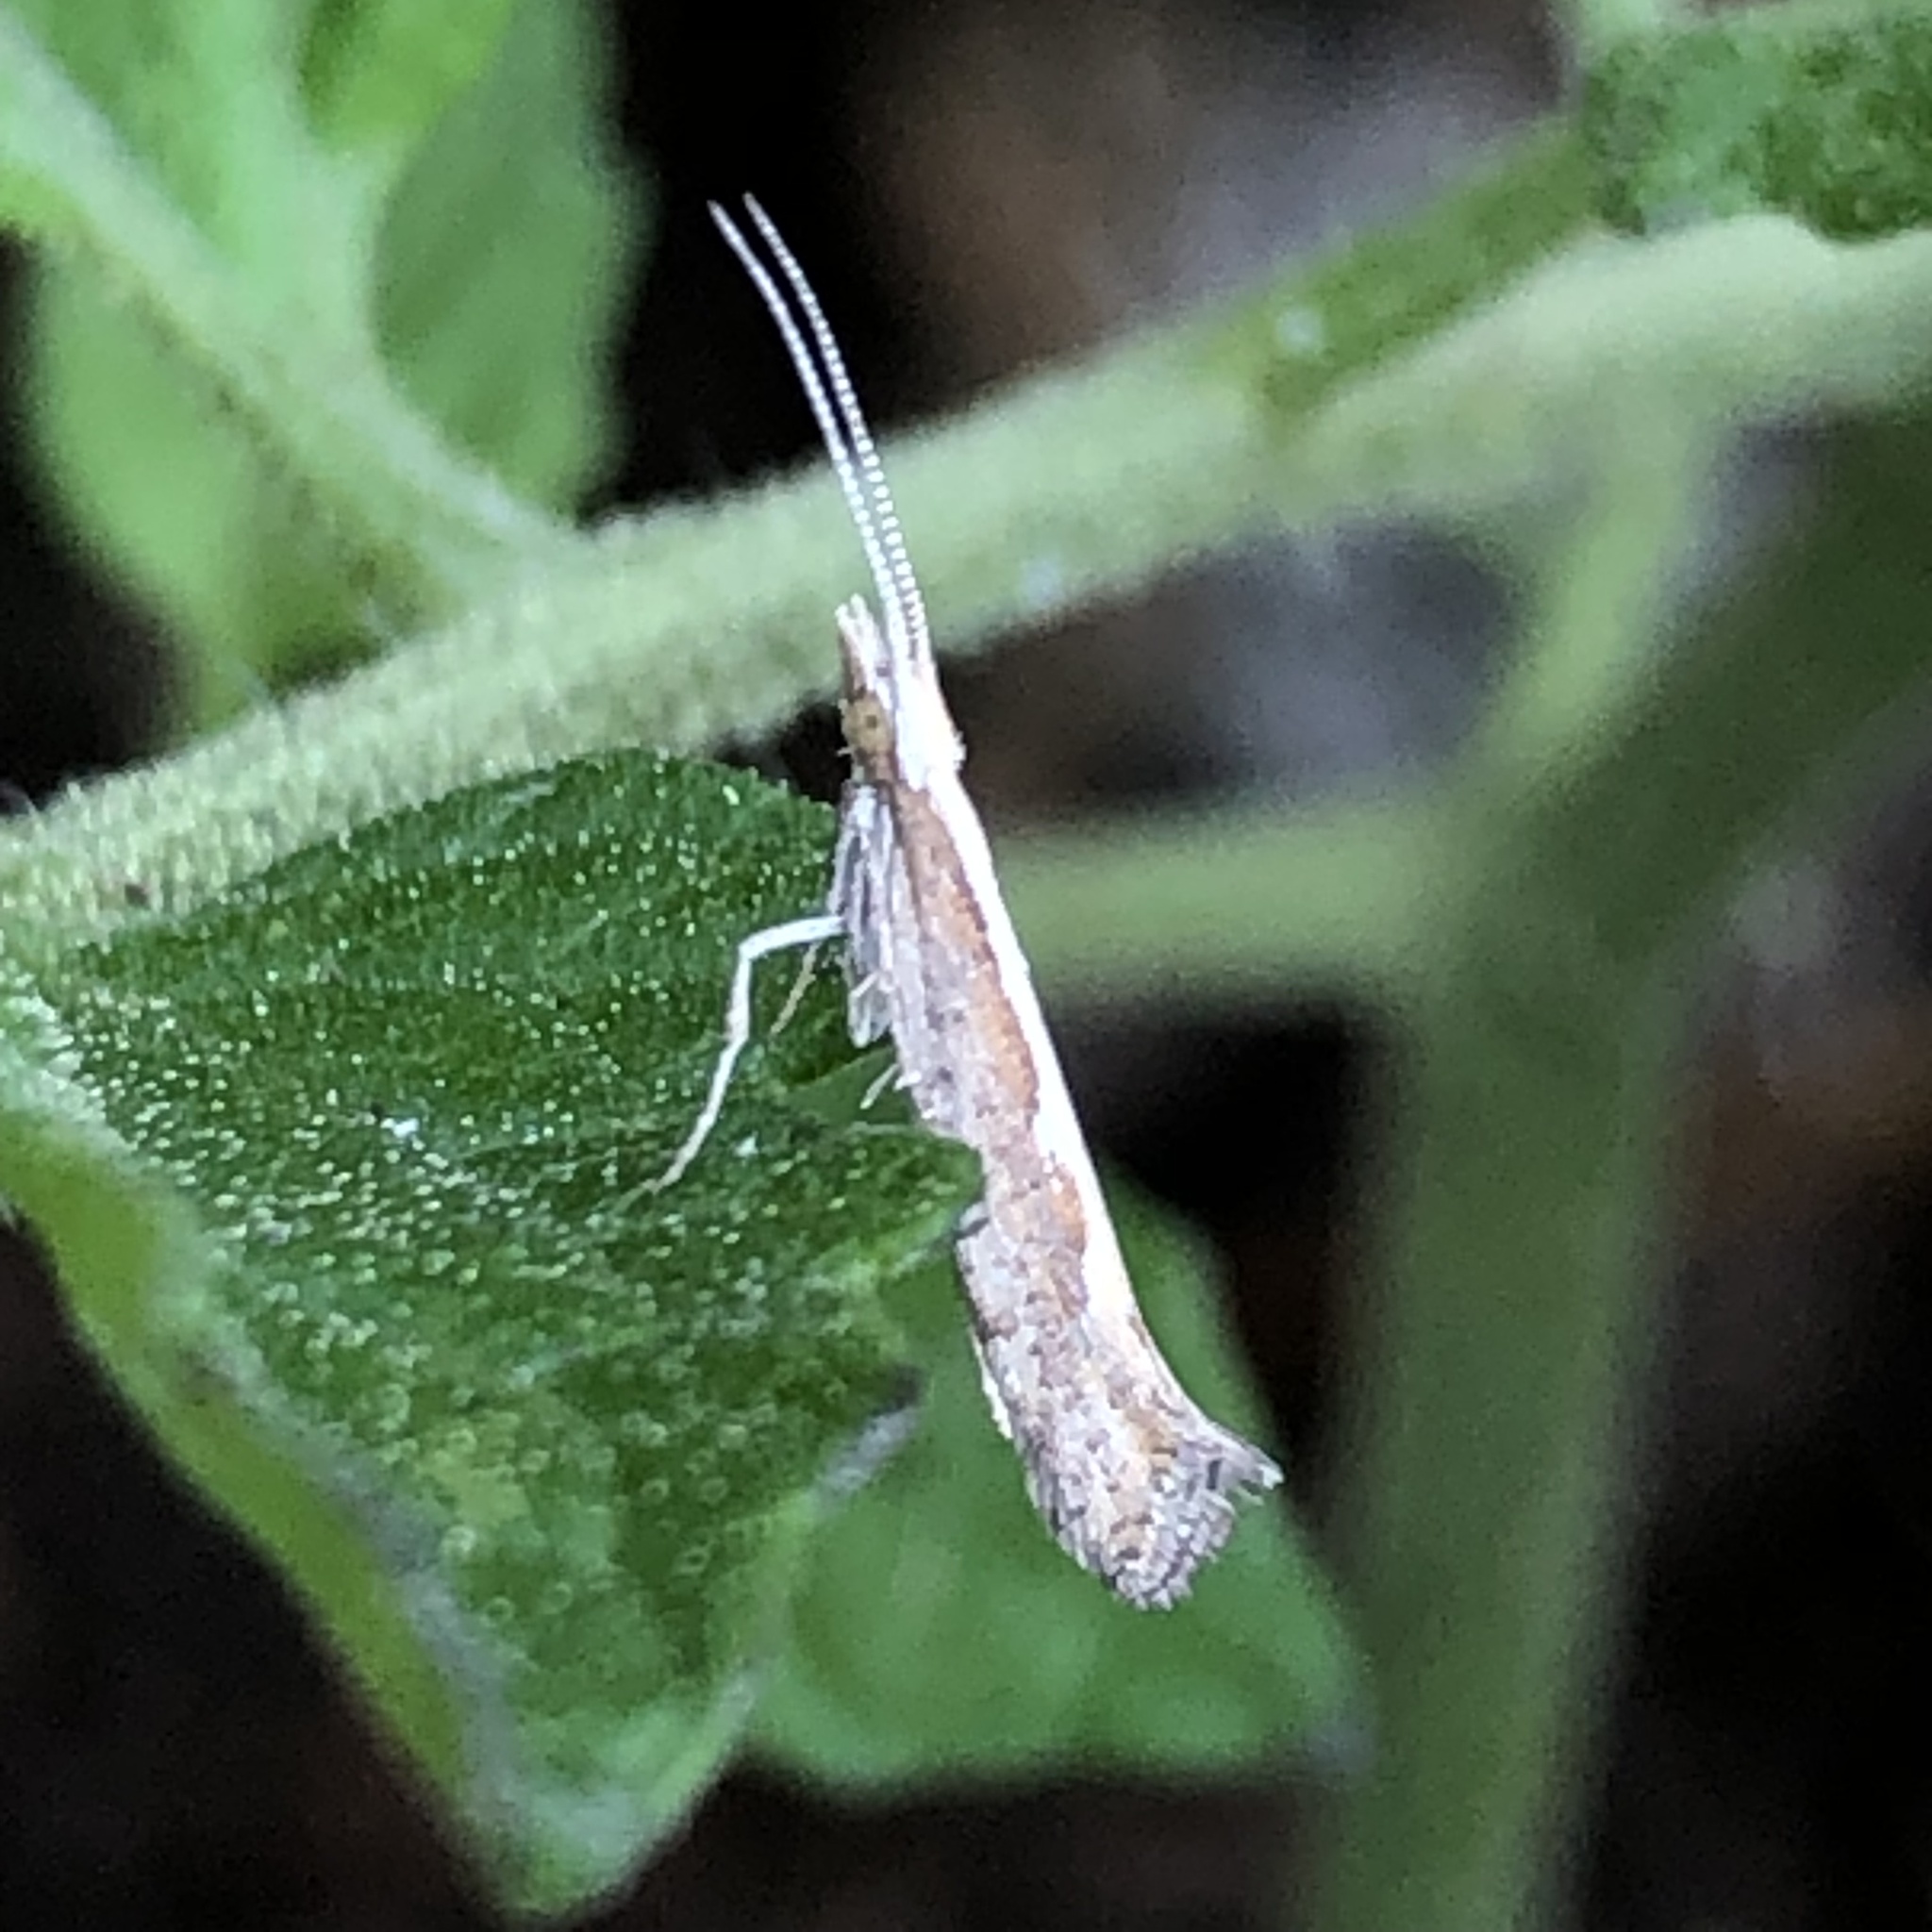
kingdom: Animalia
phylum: Arthropoda
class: Insecta
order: Lepidoptera
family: Plutellidae
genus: Plutella
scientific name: Plutella xylostella
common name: Diamond-back moth
